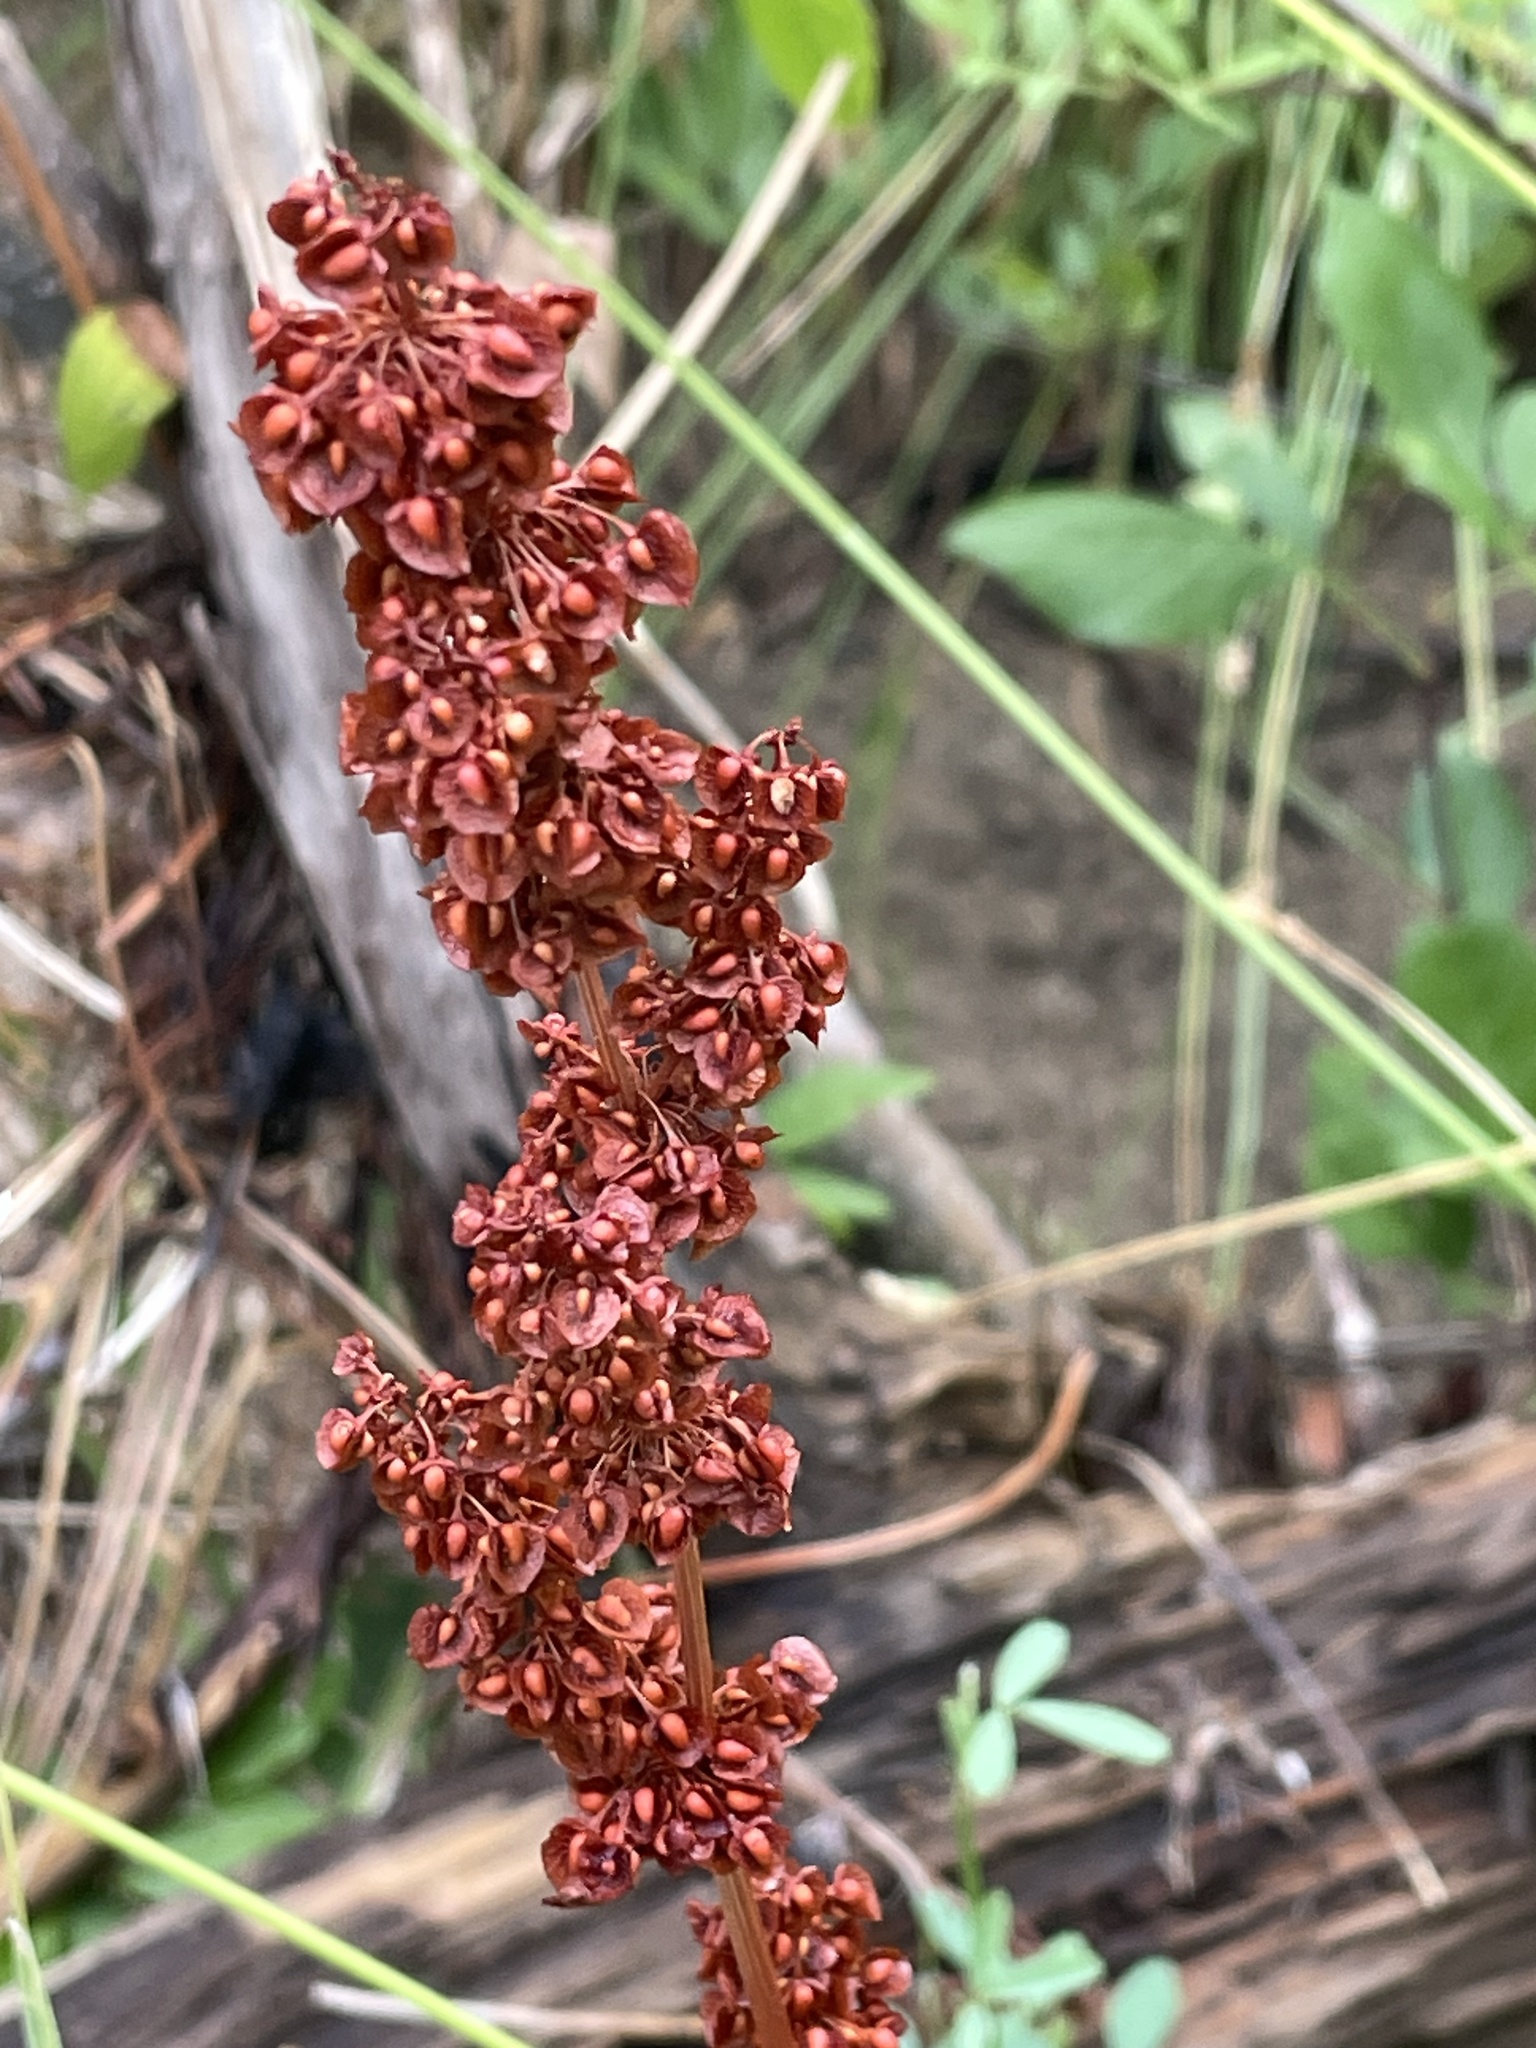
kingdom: Plantae
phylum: Tracheophyta
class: Magnoliopsida
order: Caryophyllales
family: Polygonaceae
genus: Rumex
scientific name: Rumex crispus
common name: Curled dock
